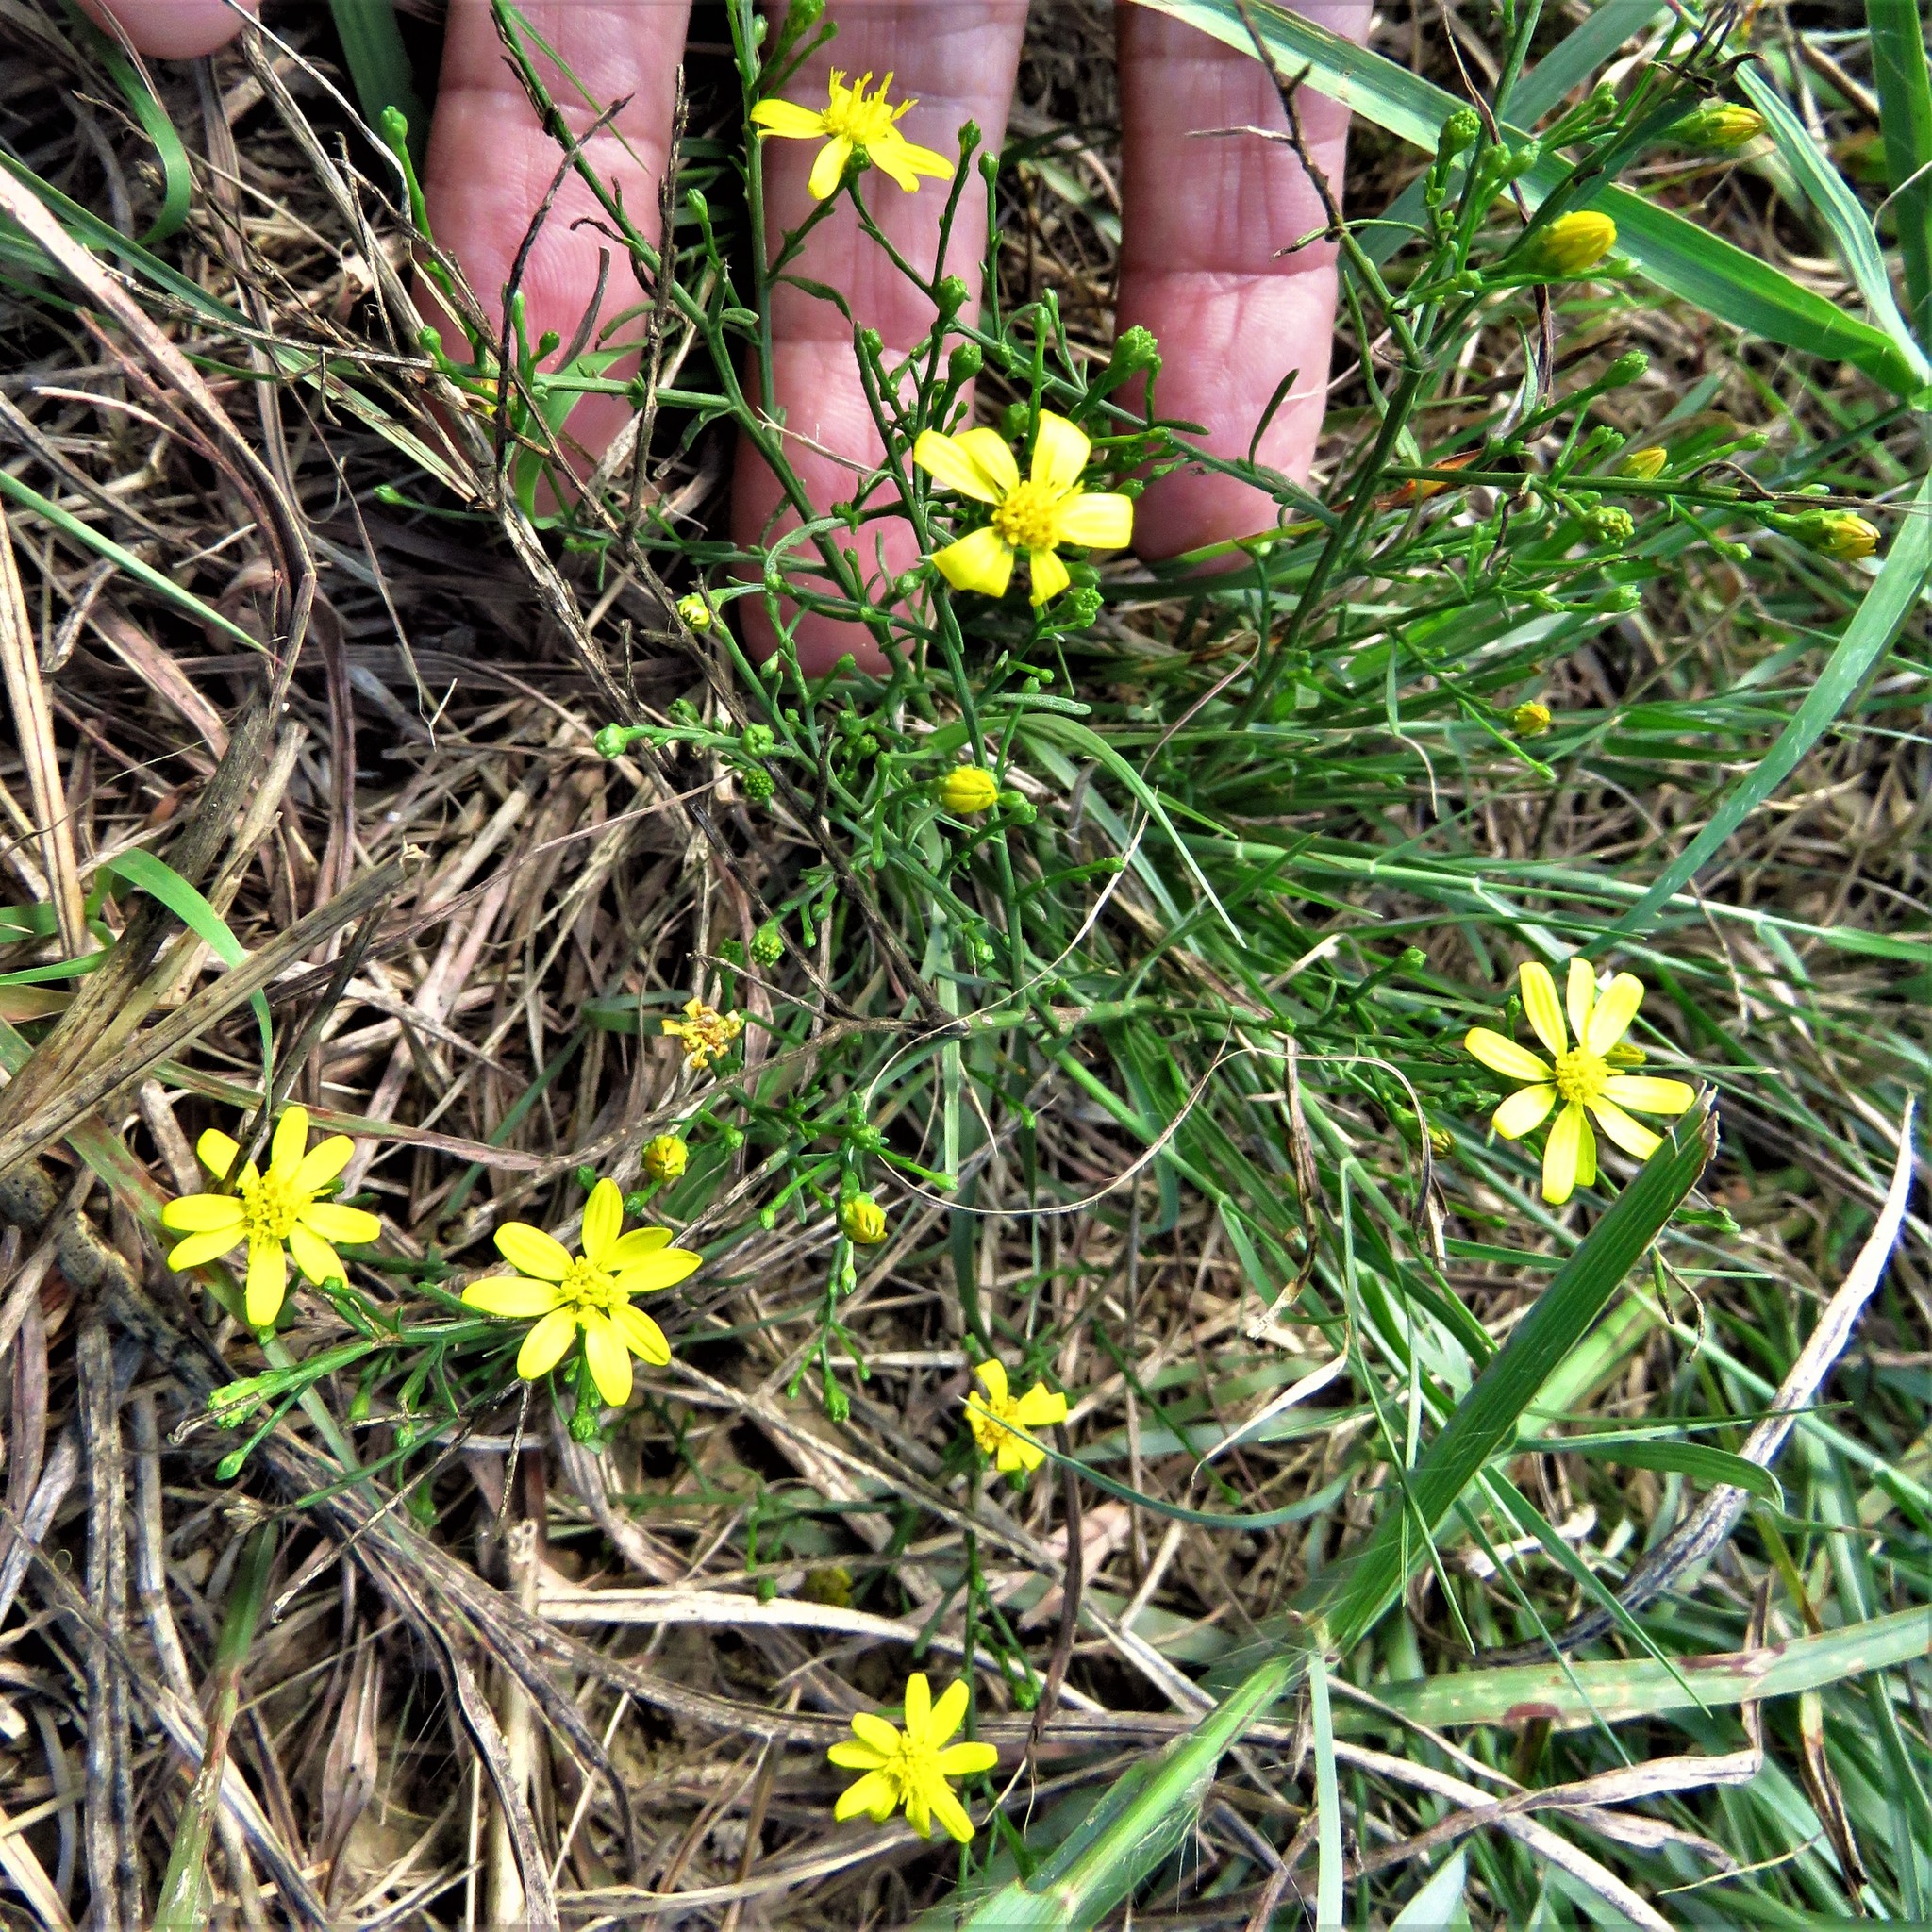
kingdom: Plantae
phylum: Tracheophyta
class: Magnoliopsida
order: Asterales
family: Asteraceae
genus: Gutierrezia
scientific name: Gutierrezia texana
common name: Texas snakeweed
